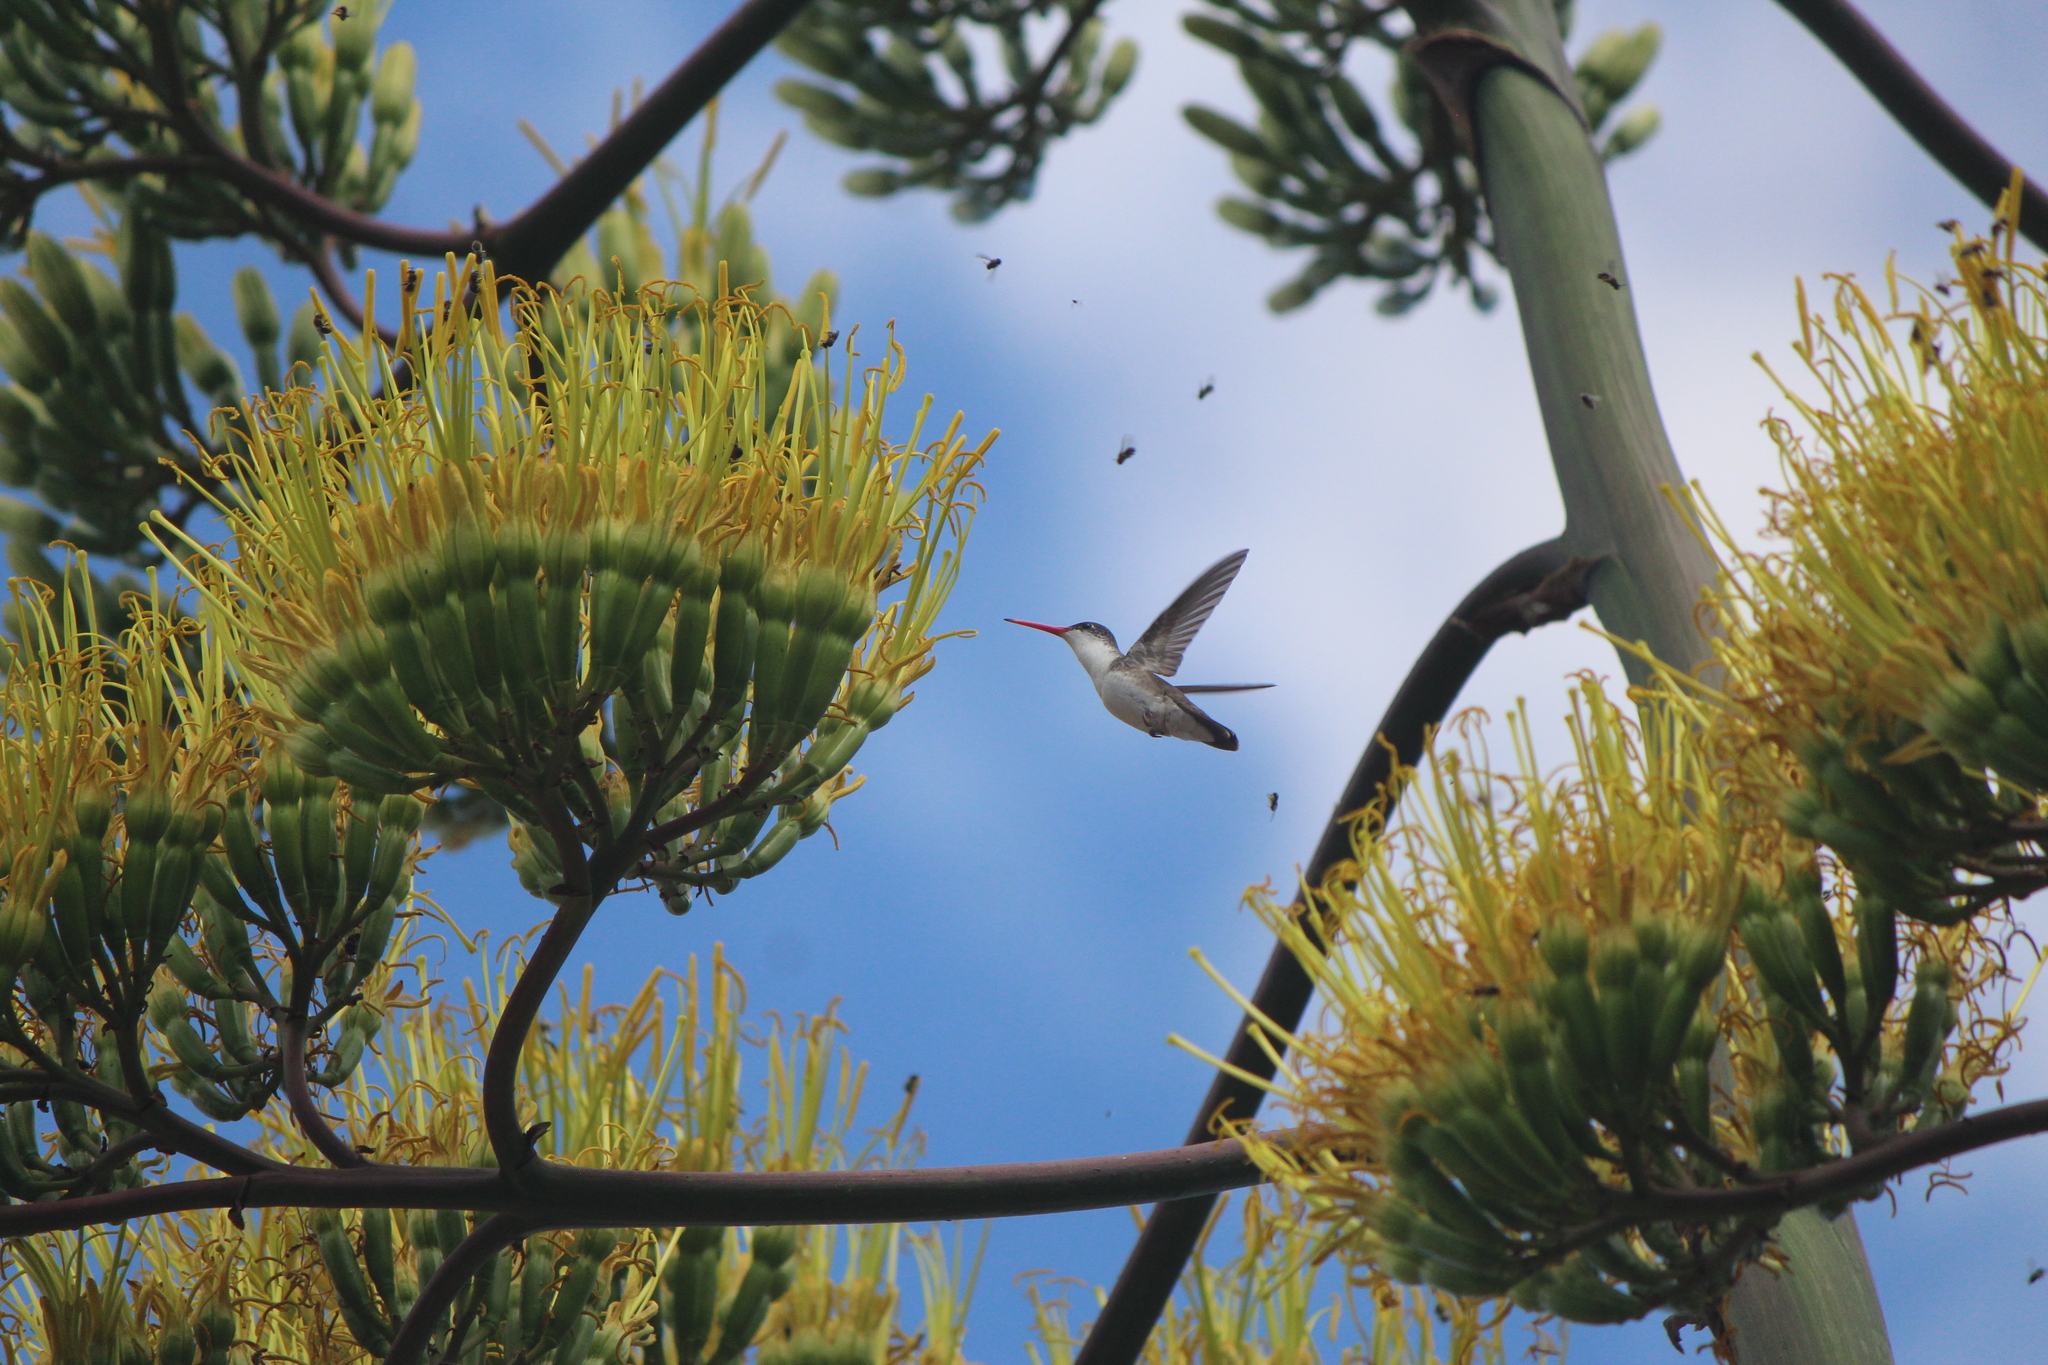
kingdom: Animalia
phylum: Chordata
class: Aves
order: Apodiformes
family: Trochilidae
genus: Leucolia
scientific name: Leucolia violiceps
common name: Violet-crowned hummingbird
